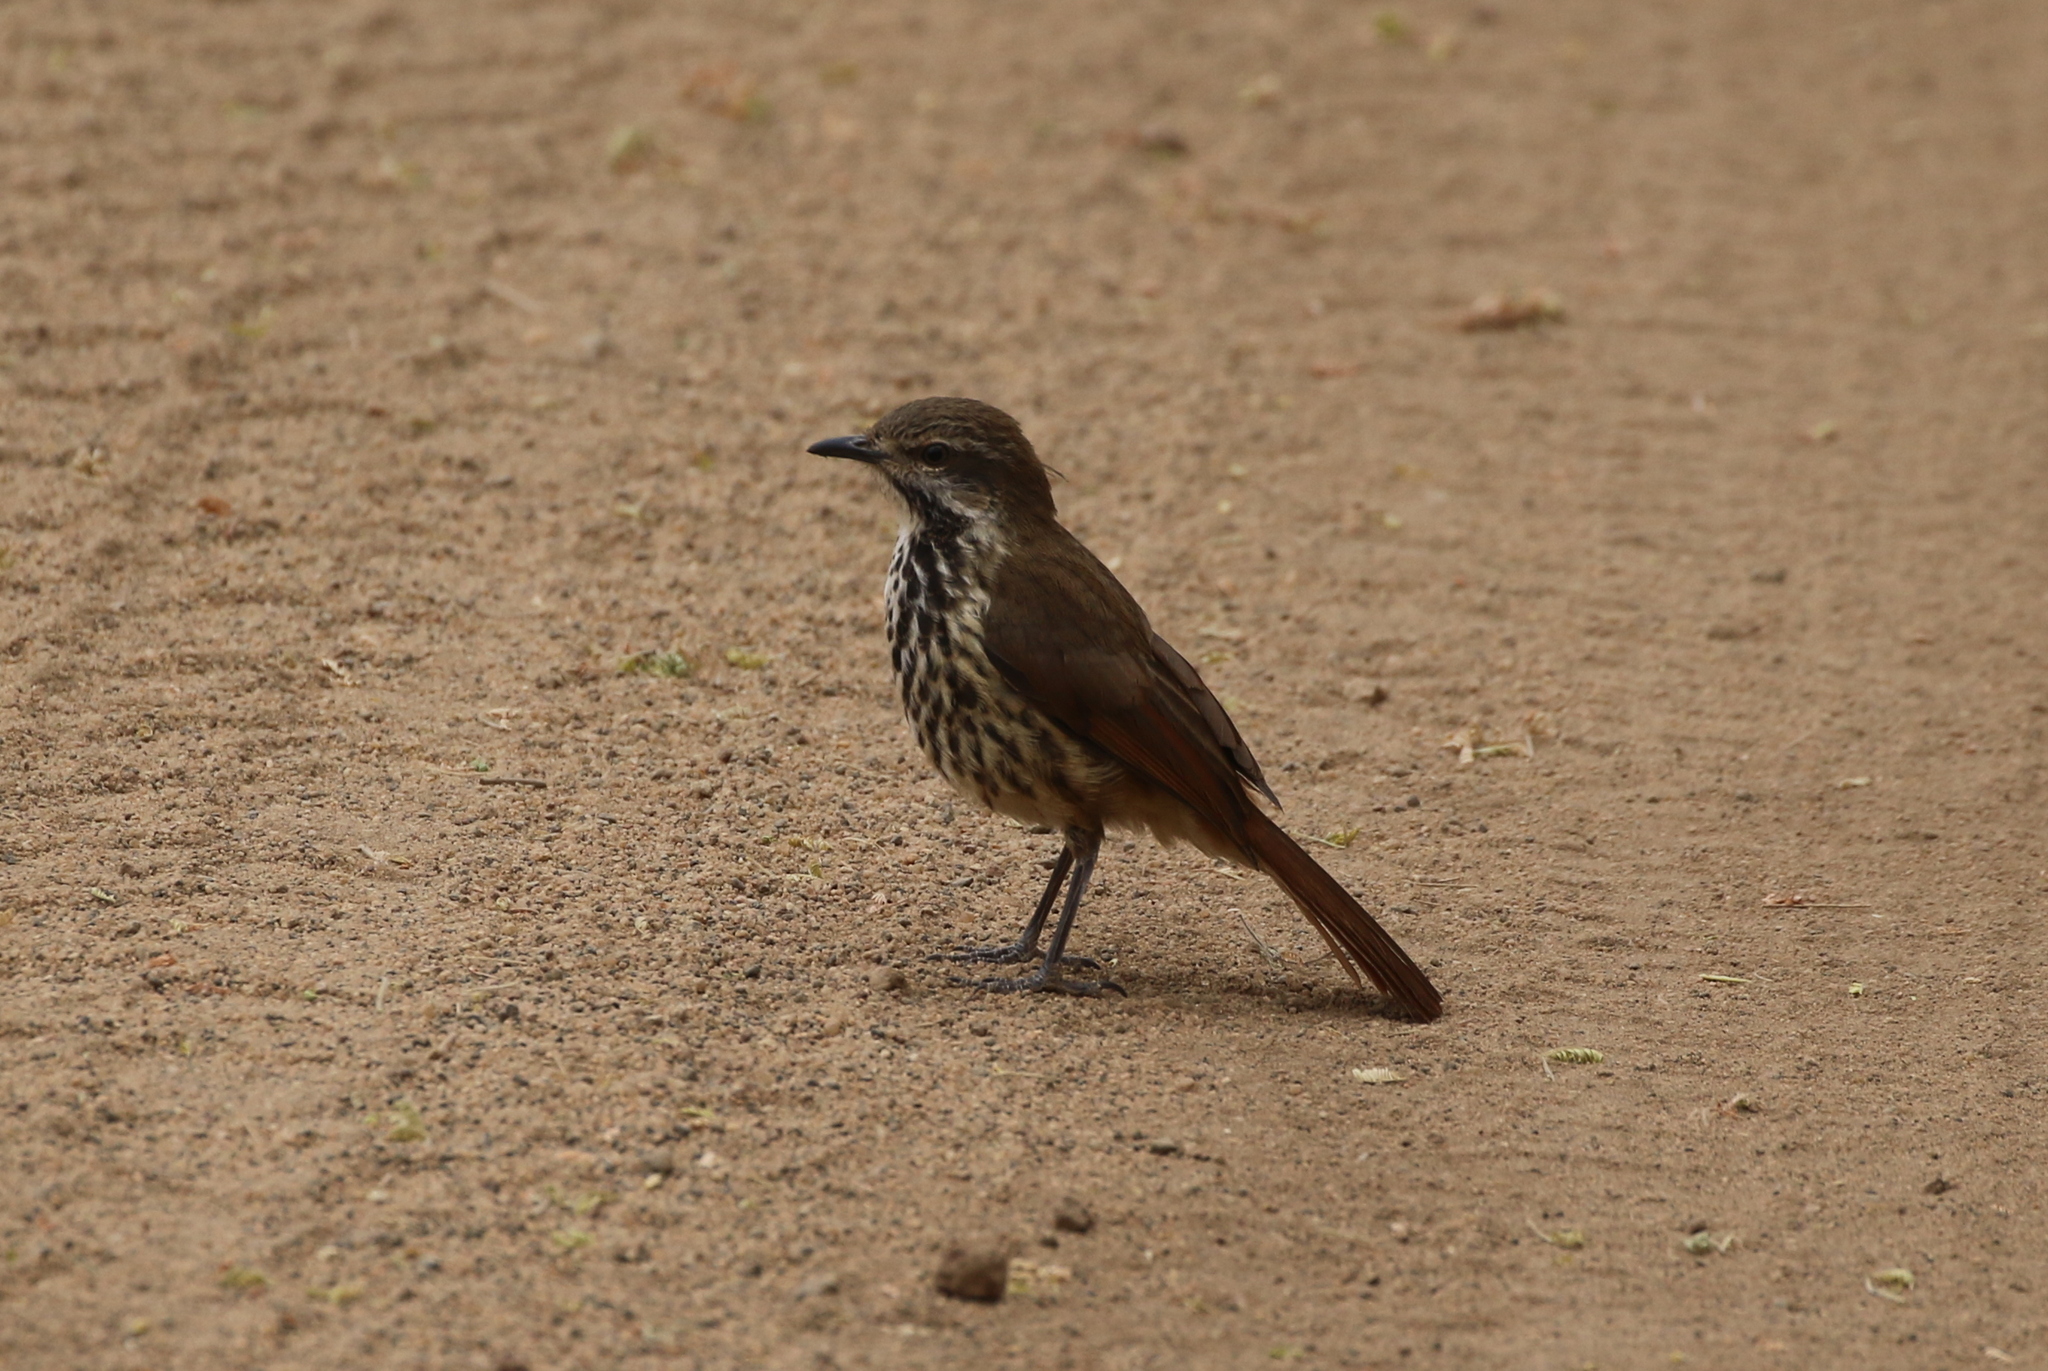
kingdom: Animalia
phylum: Chordata
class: Aves
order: Passeriformes
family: Muscicapidae
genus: Cichladusa
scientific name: Cichladusa guttata
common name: Spotted palm thrush
